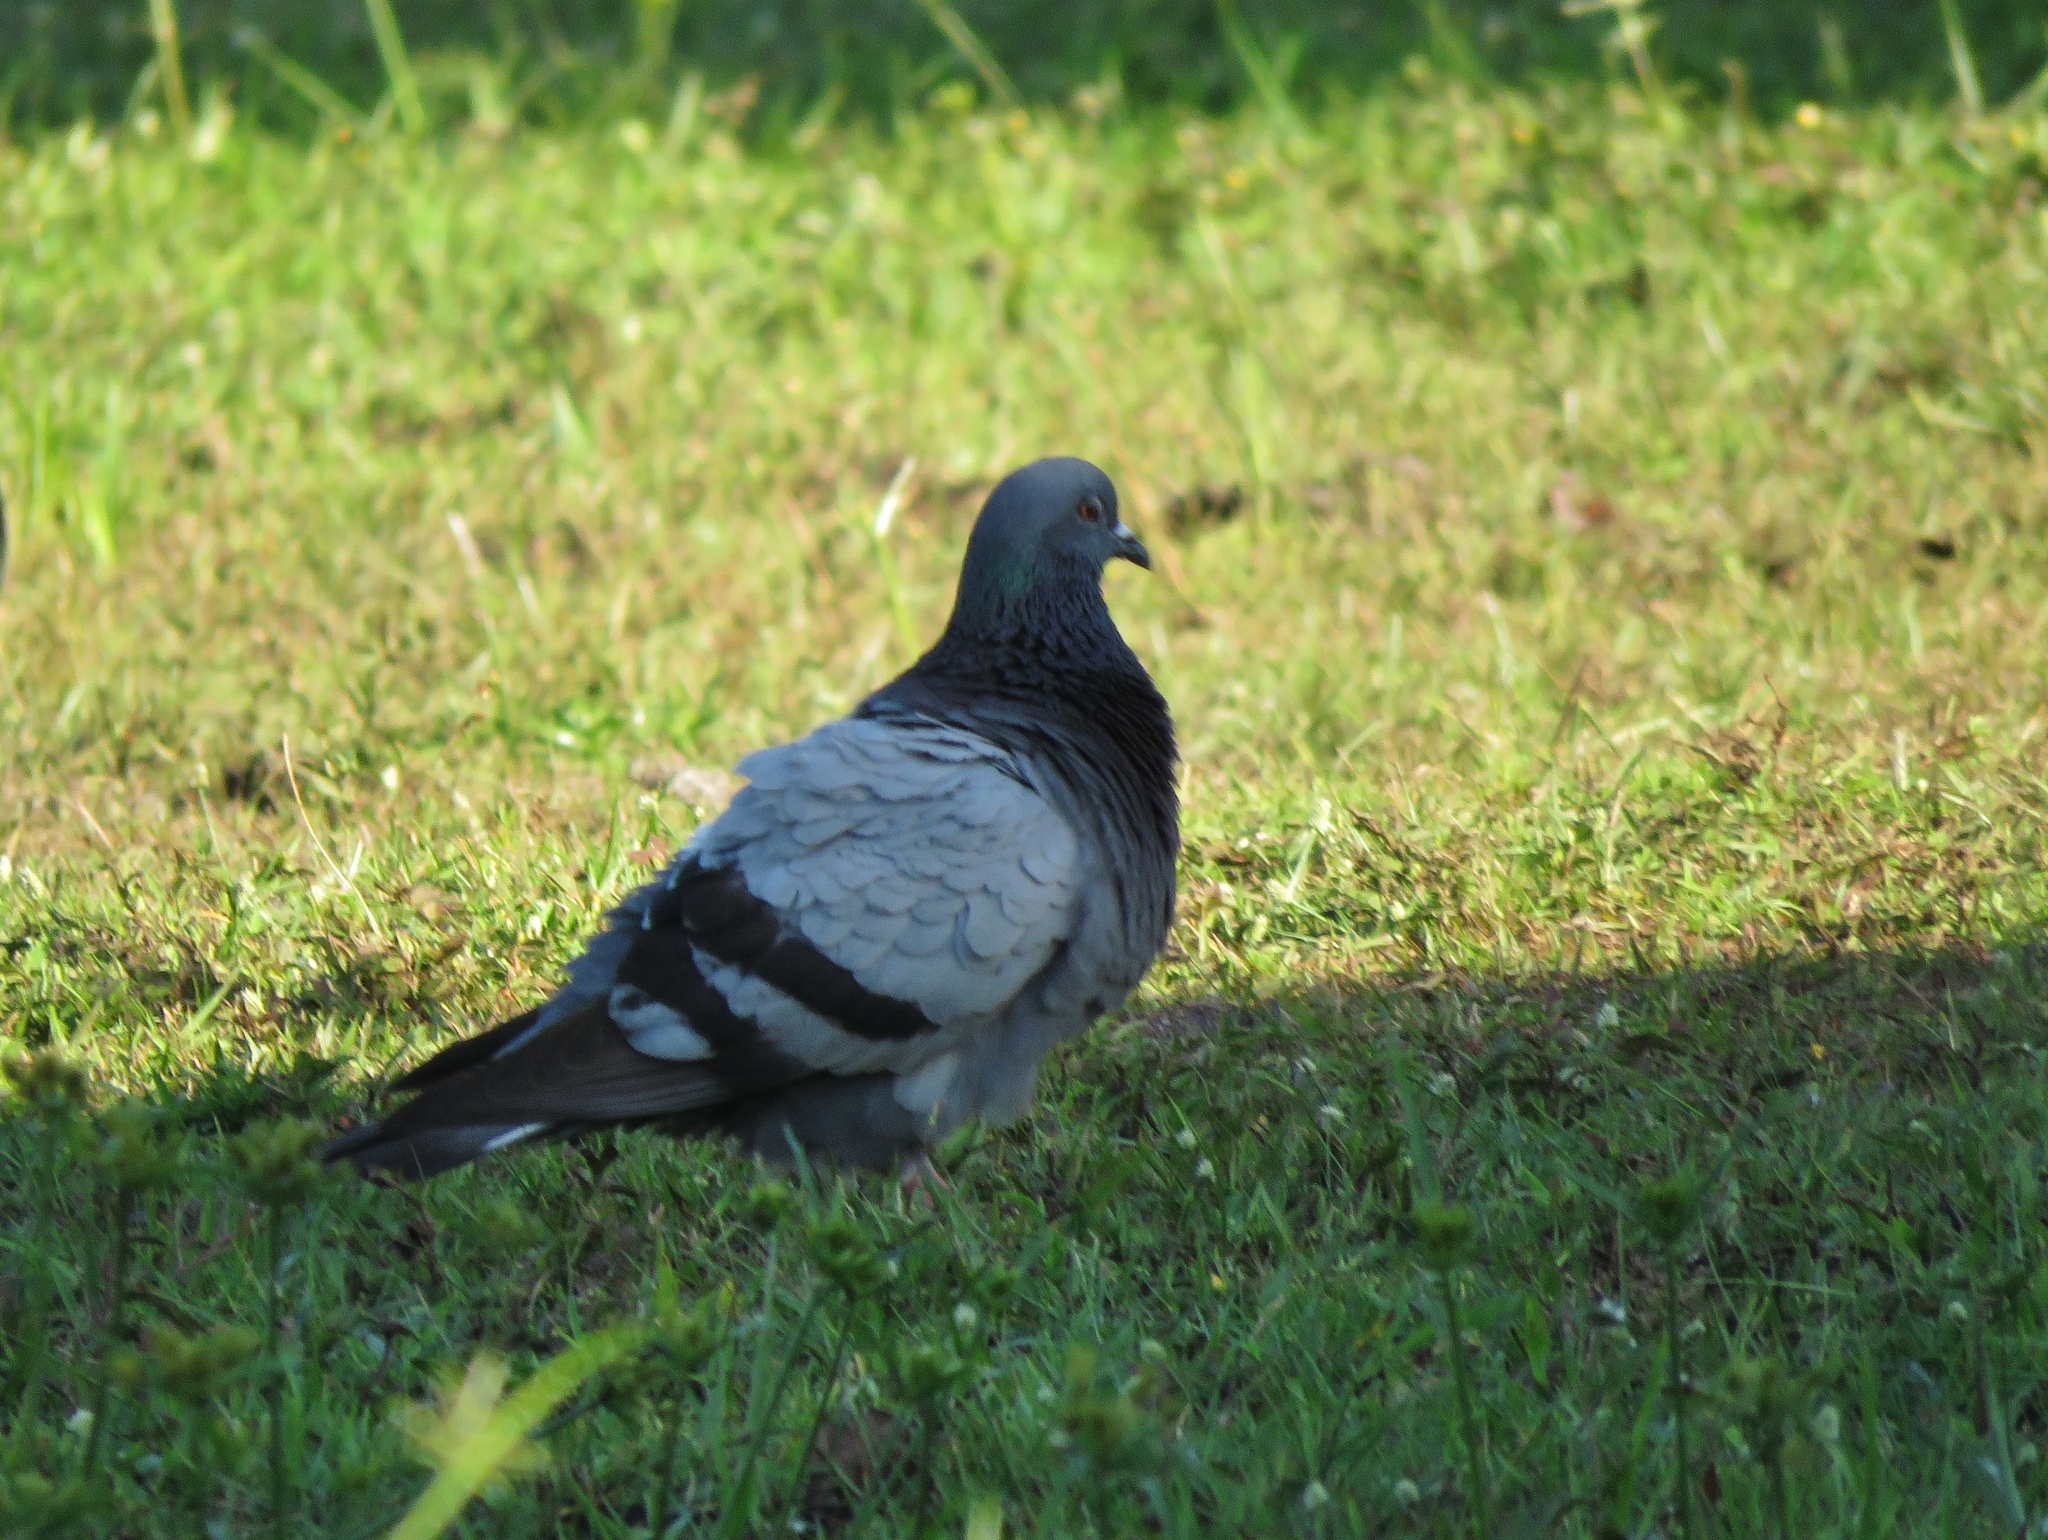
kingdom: Animalia
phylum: Chordata
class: Aves
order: Columbiformes
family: Columbidae
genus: Columba
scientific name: Columba livia
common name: Rock pigeon
